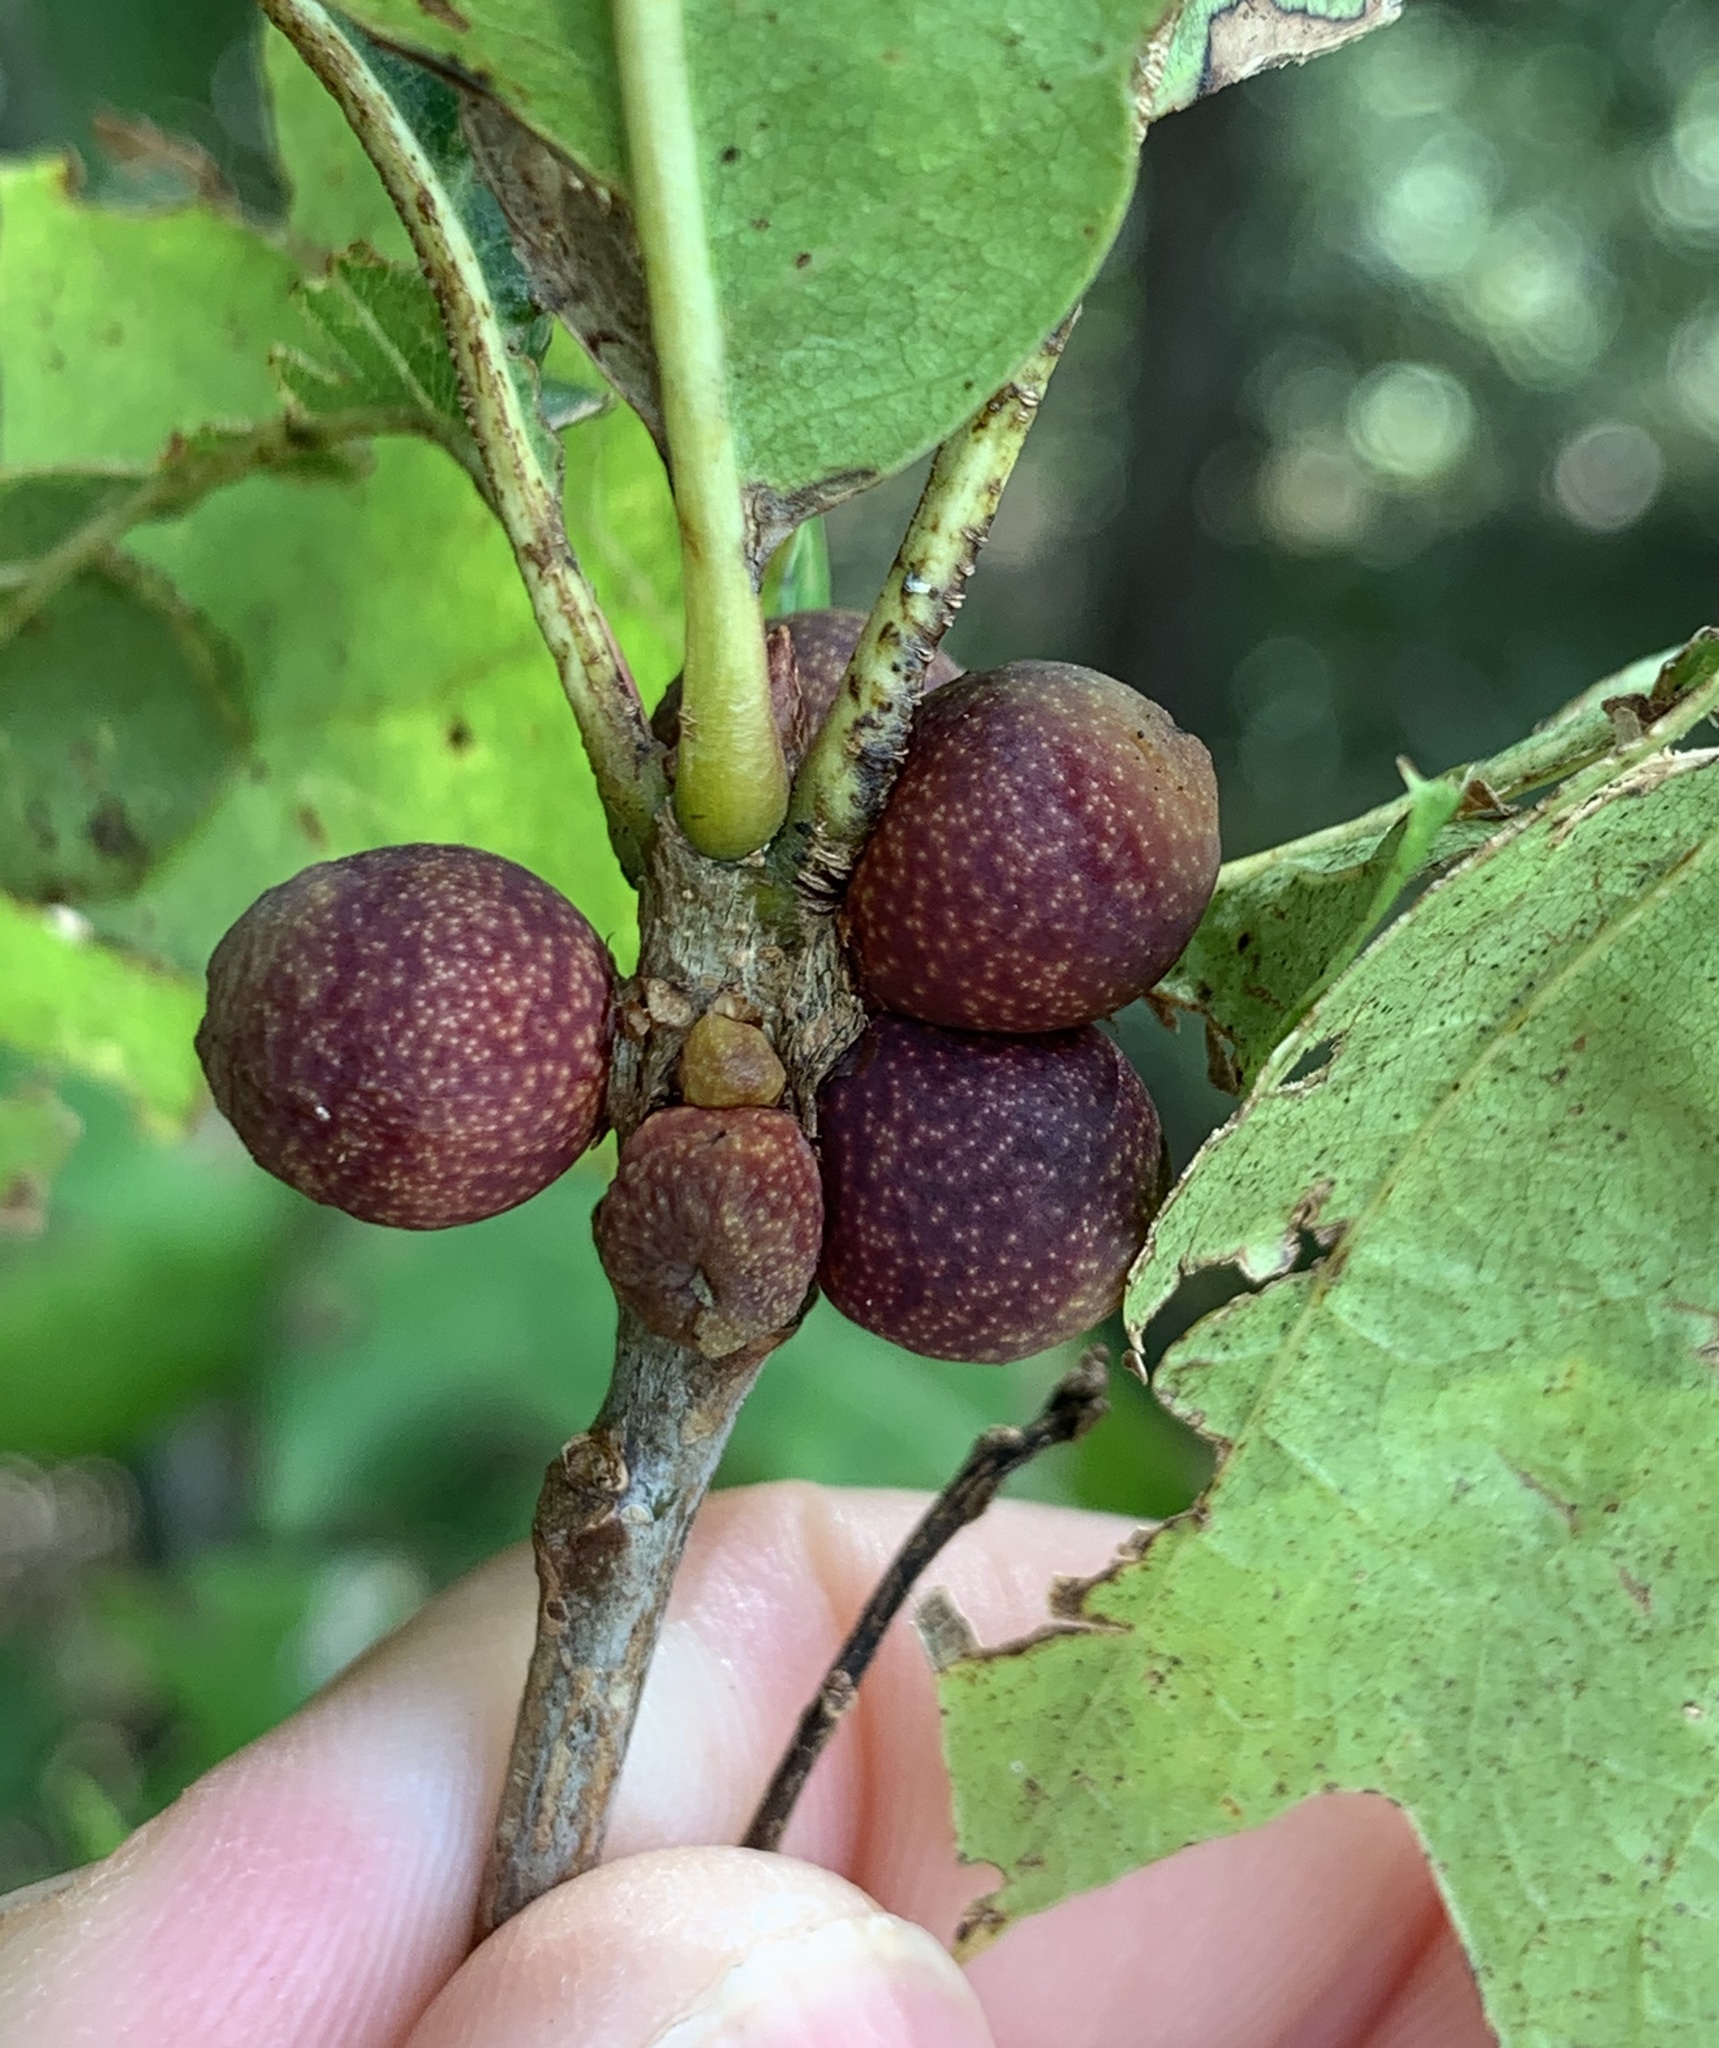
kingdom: Animalia
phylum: Arthropoda
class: Insecta
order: Hymenoptera
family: Cynipidae
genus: Kokkocynips
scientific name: Kokkocynips imbricariae
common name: Banded bullet gall wasp
